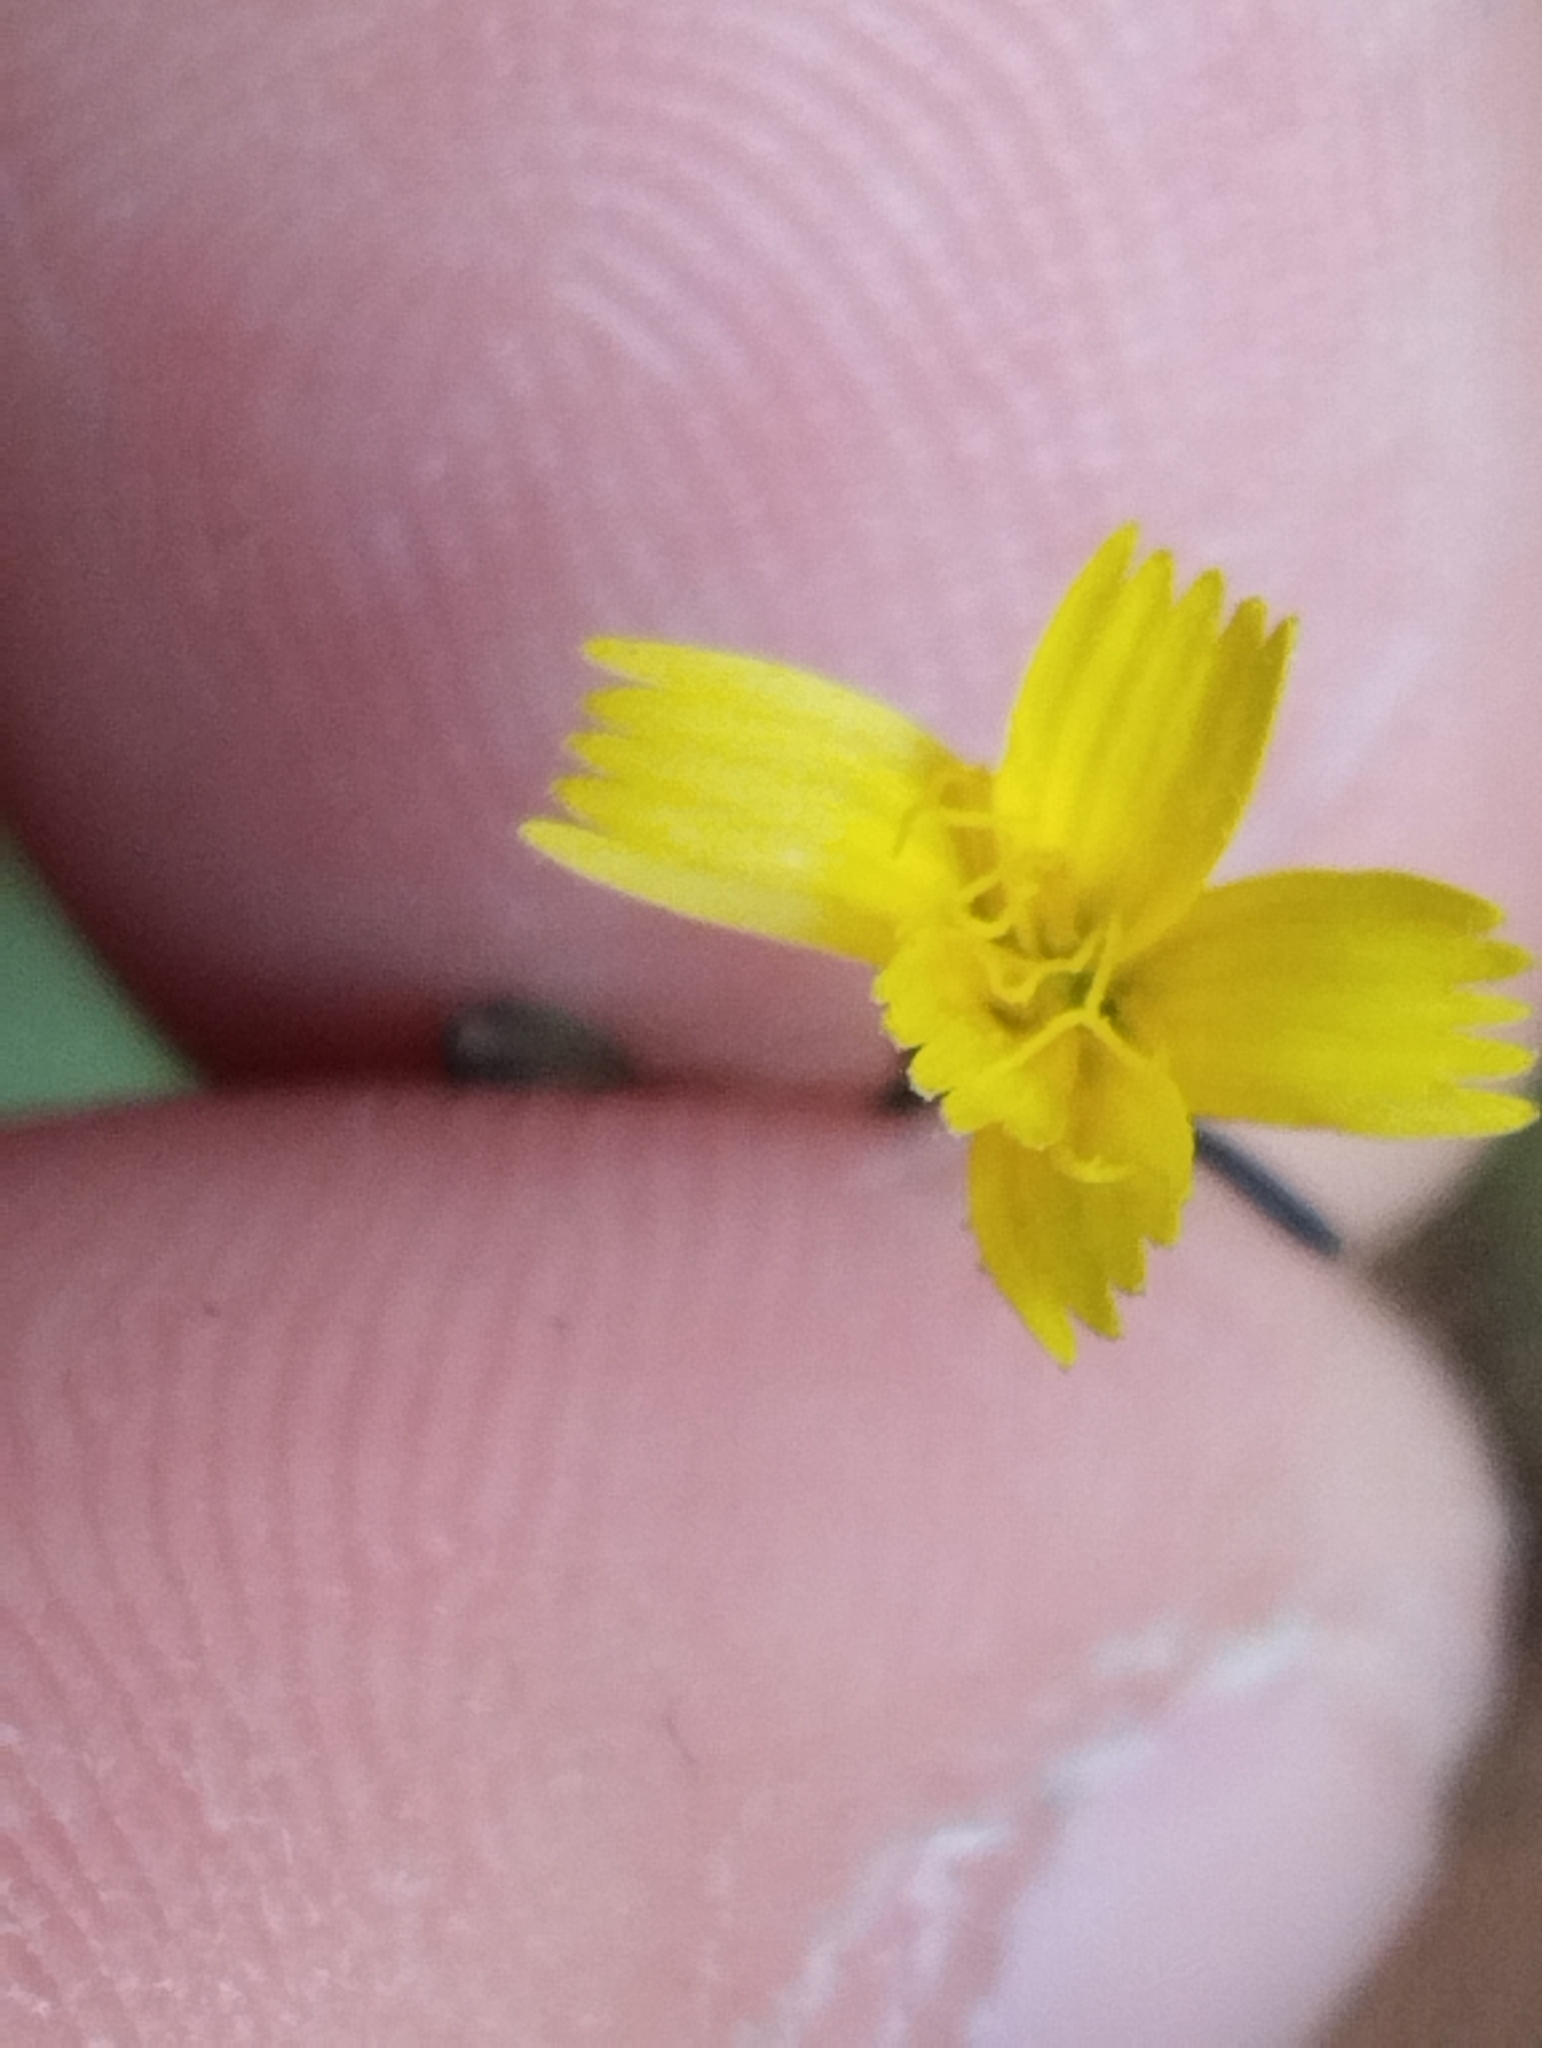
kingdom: Plantae
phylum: Tracheophyta
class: Magnoliopsida
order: Asterales
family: Asteraceae
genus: Mycelis
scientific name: Mycelis muralis
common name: Wall lettuce
